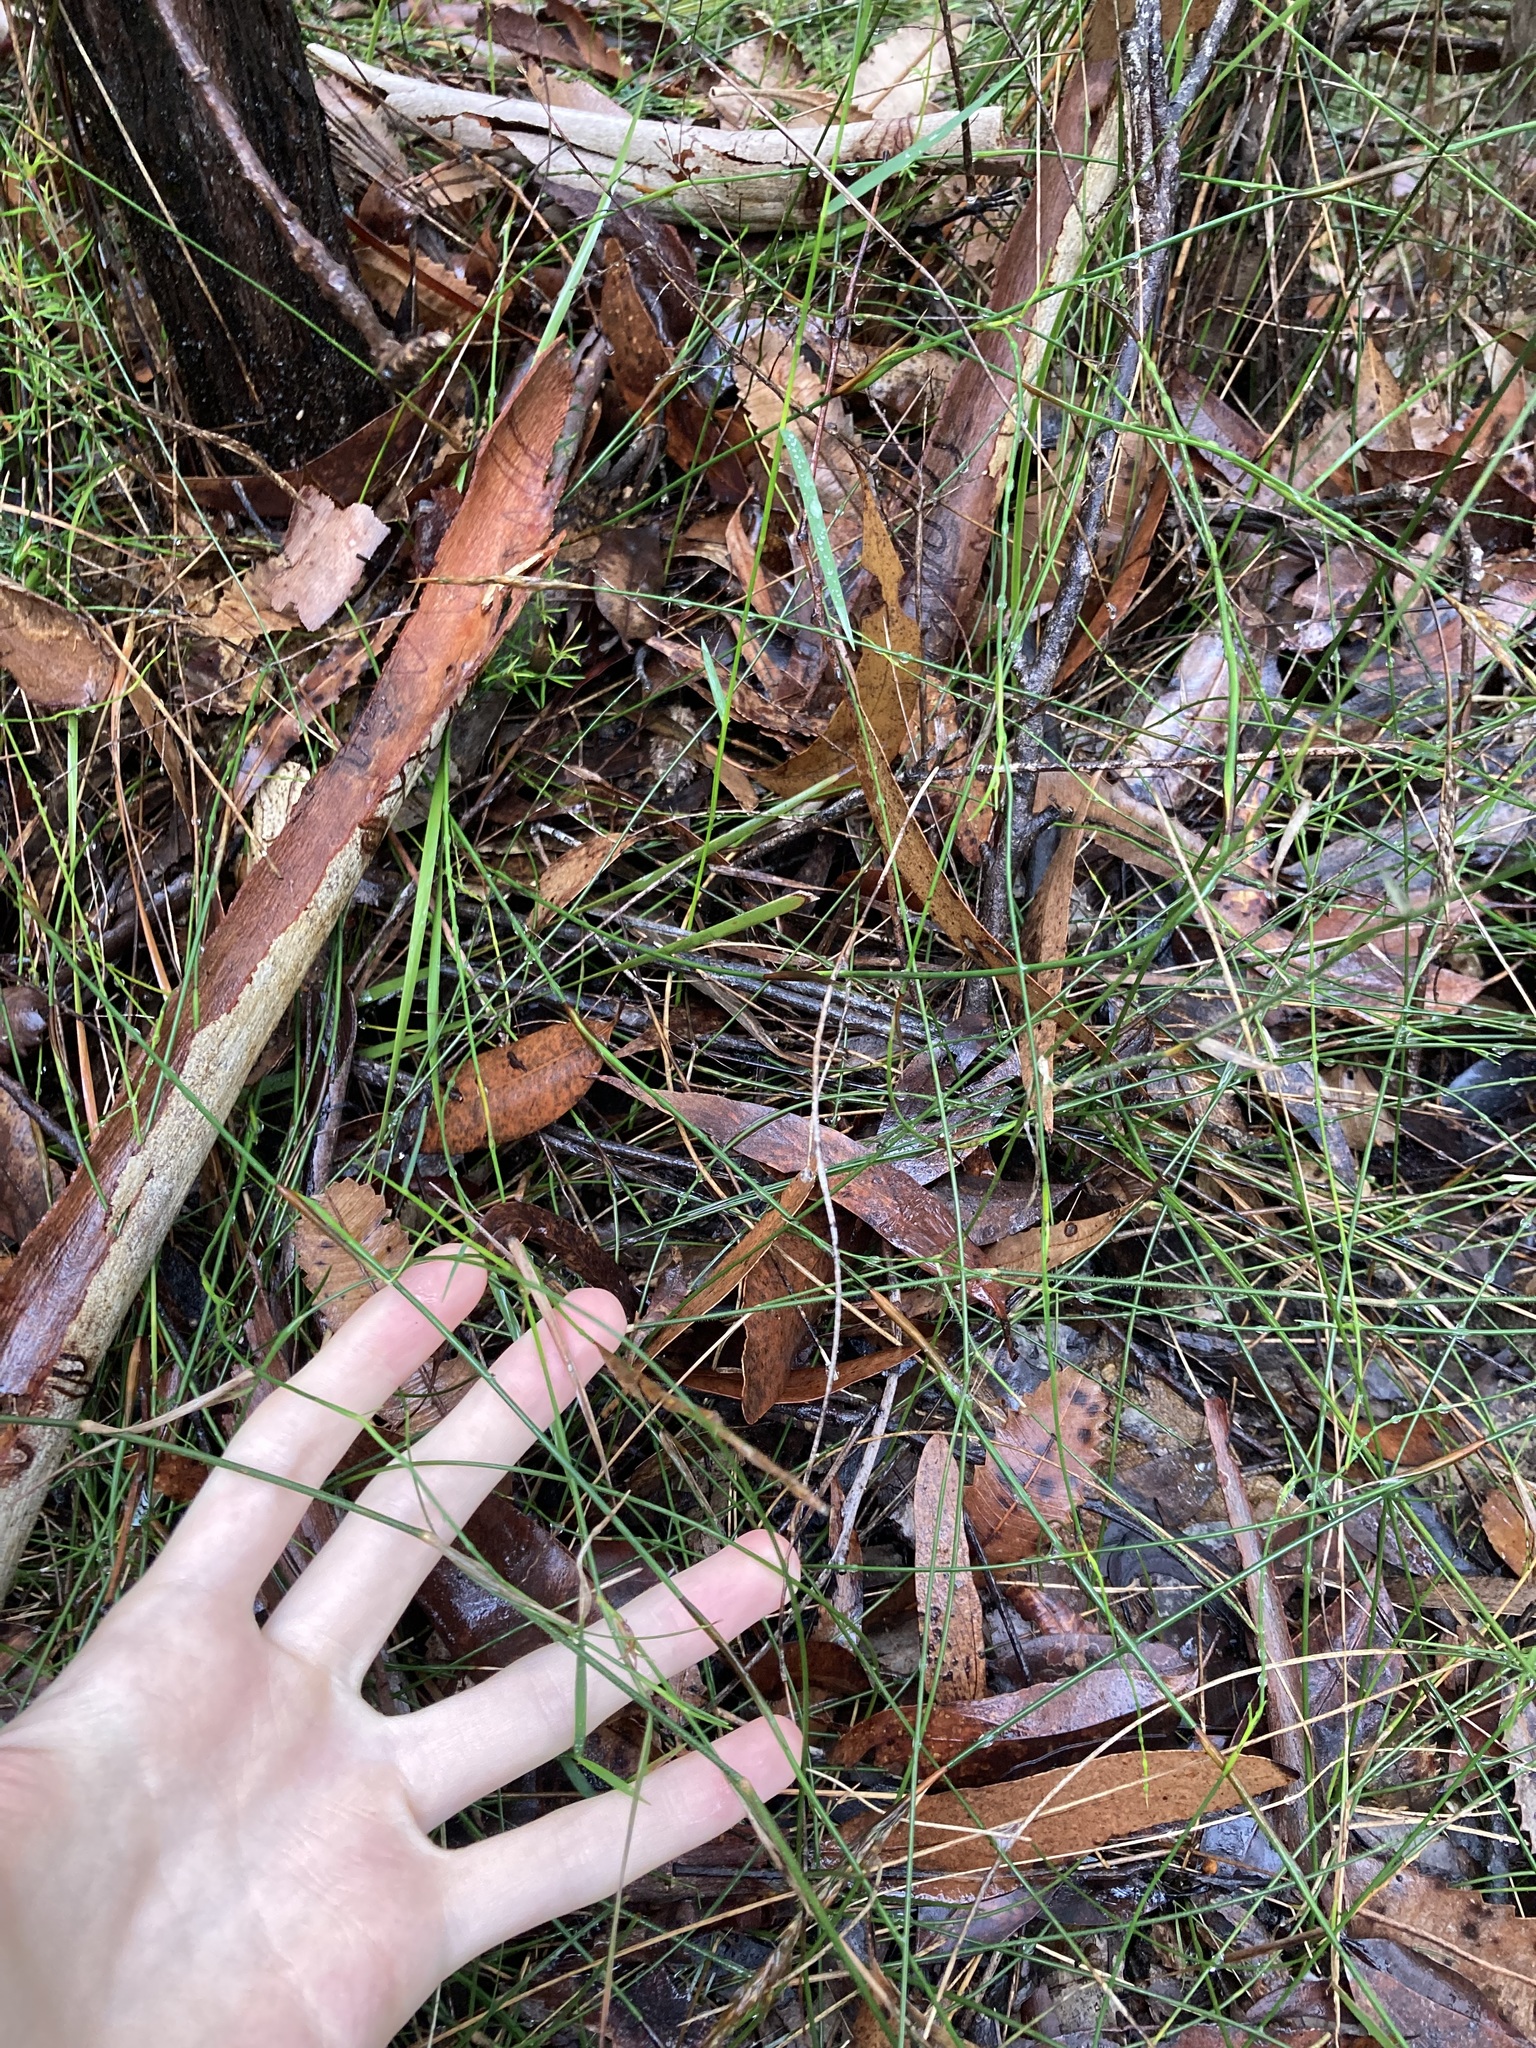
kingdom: Plantae
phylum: Tracheophyta
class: Liliopsida
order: Poales
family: Poaceae
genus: Entolasia
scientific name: Entolasia stricta
